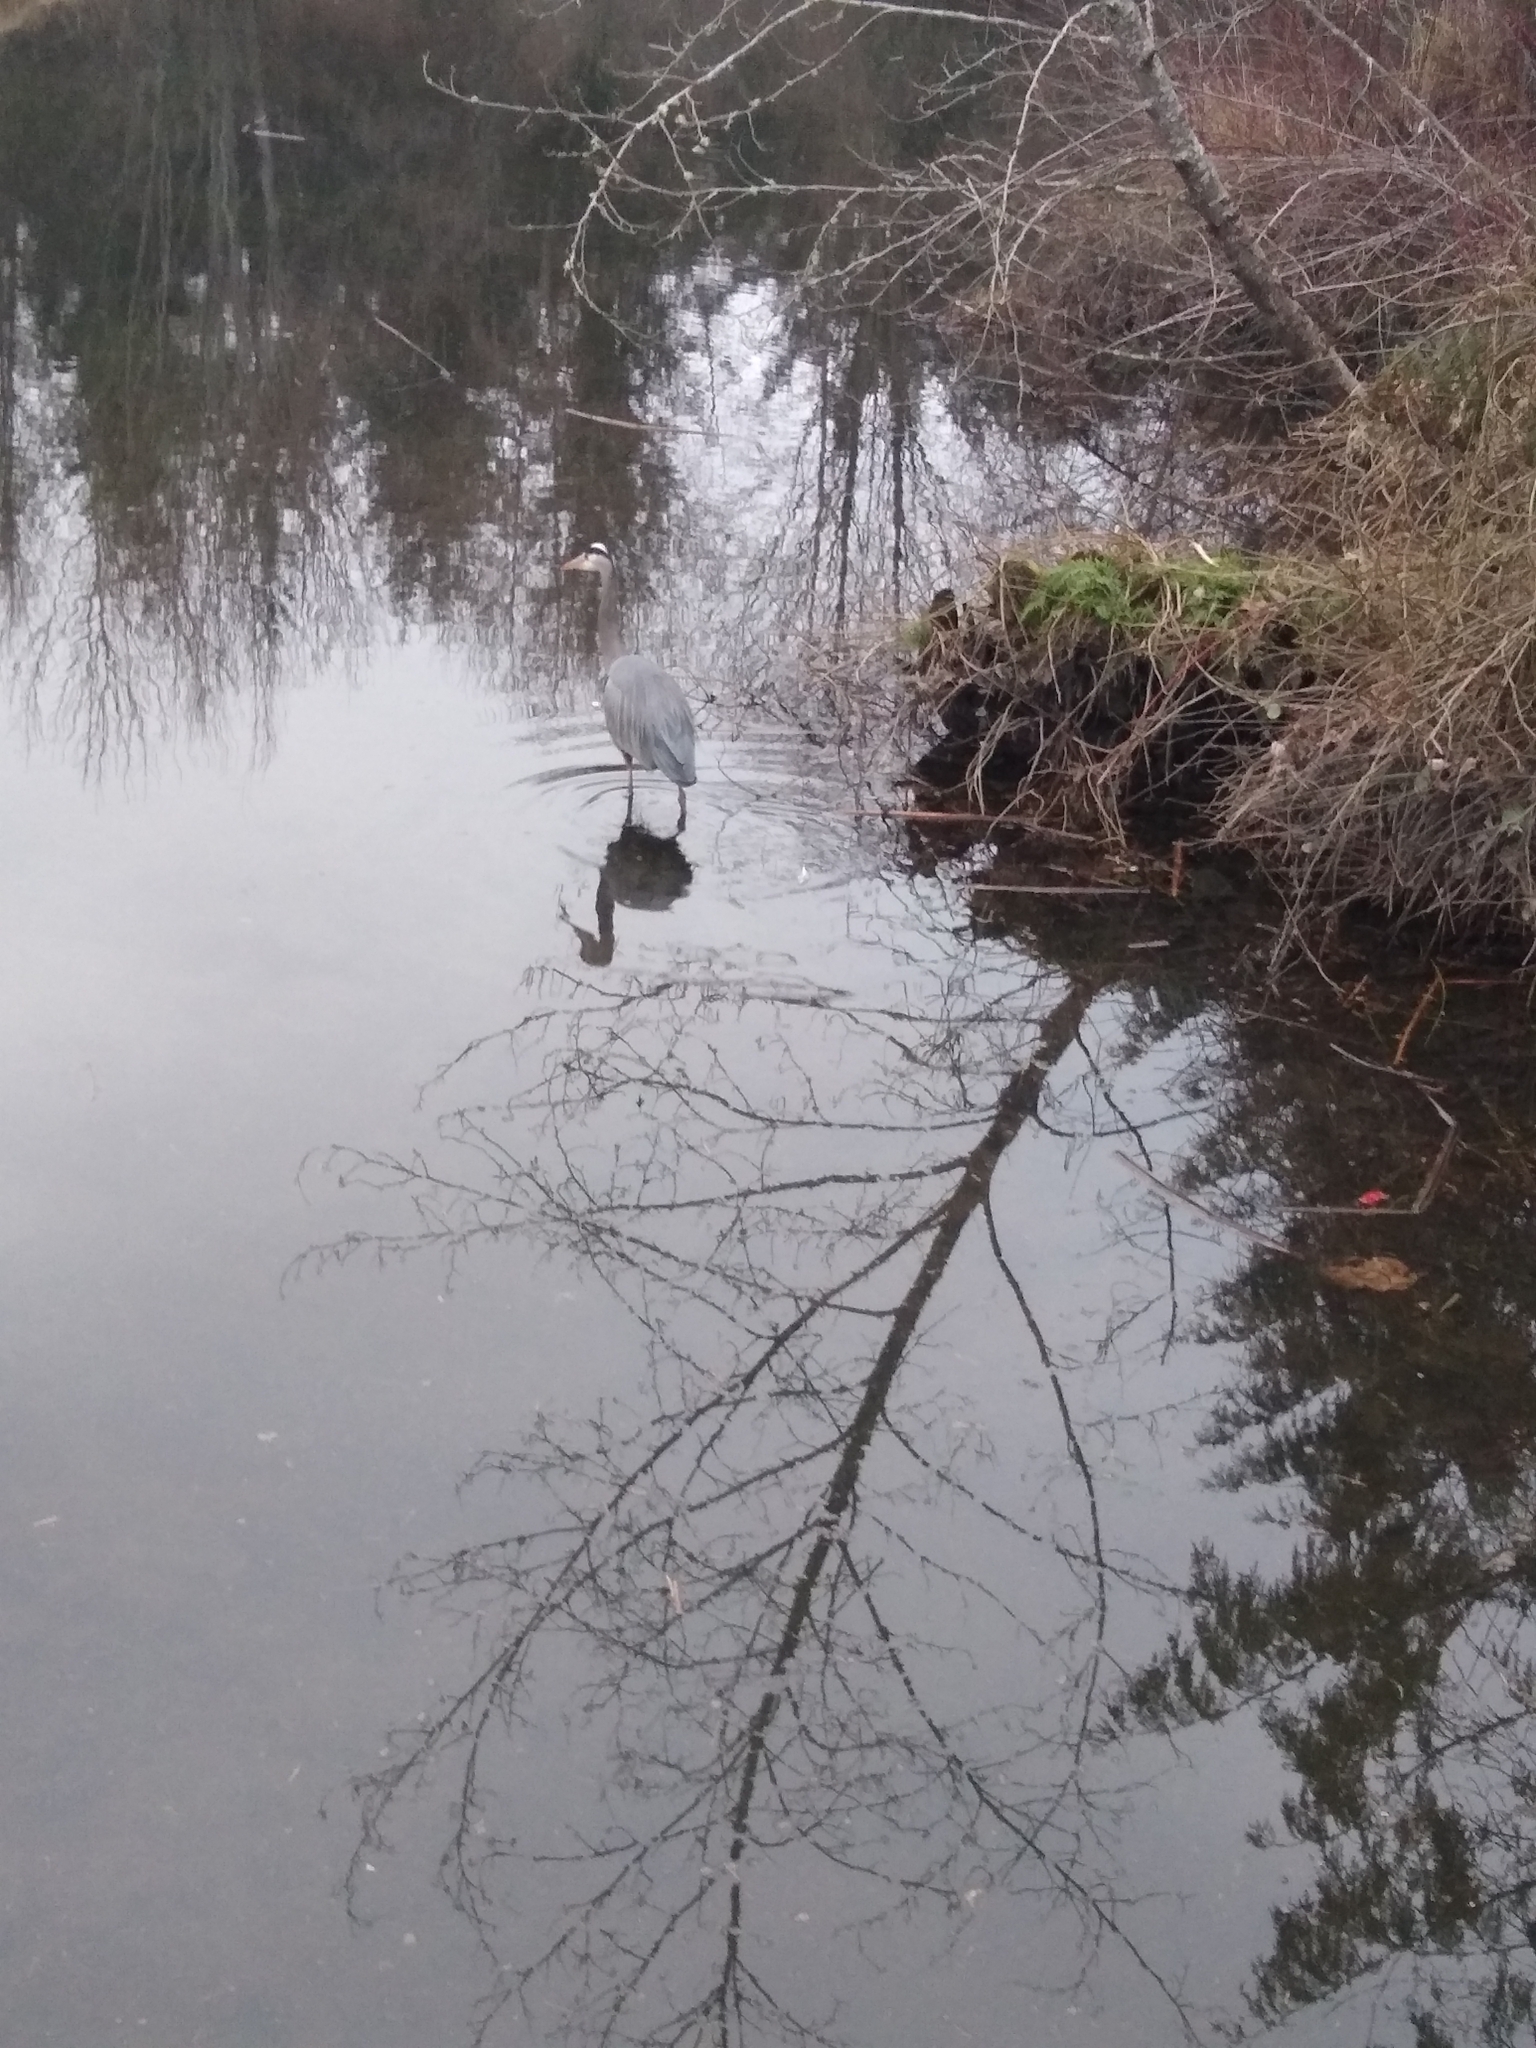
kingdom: Animalia
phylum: Chordata
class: Aves
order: Pelecaniformes
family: Ardeidae
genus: Ardea
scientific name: Ardea herodias
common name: Great blue heron
